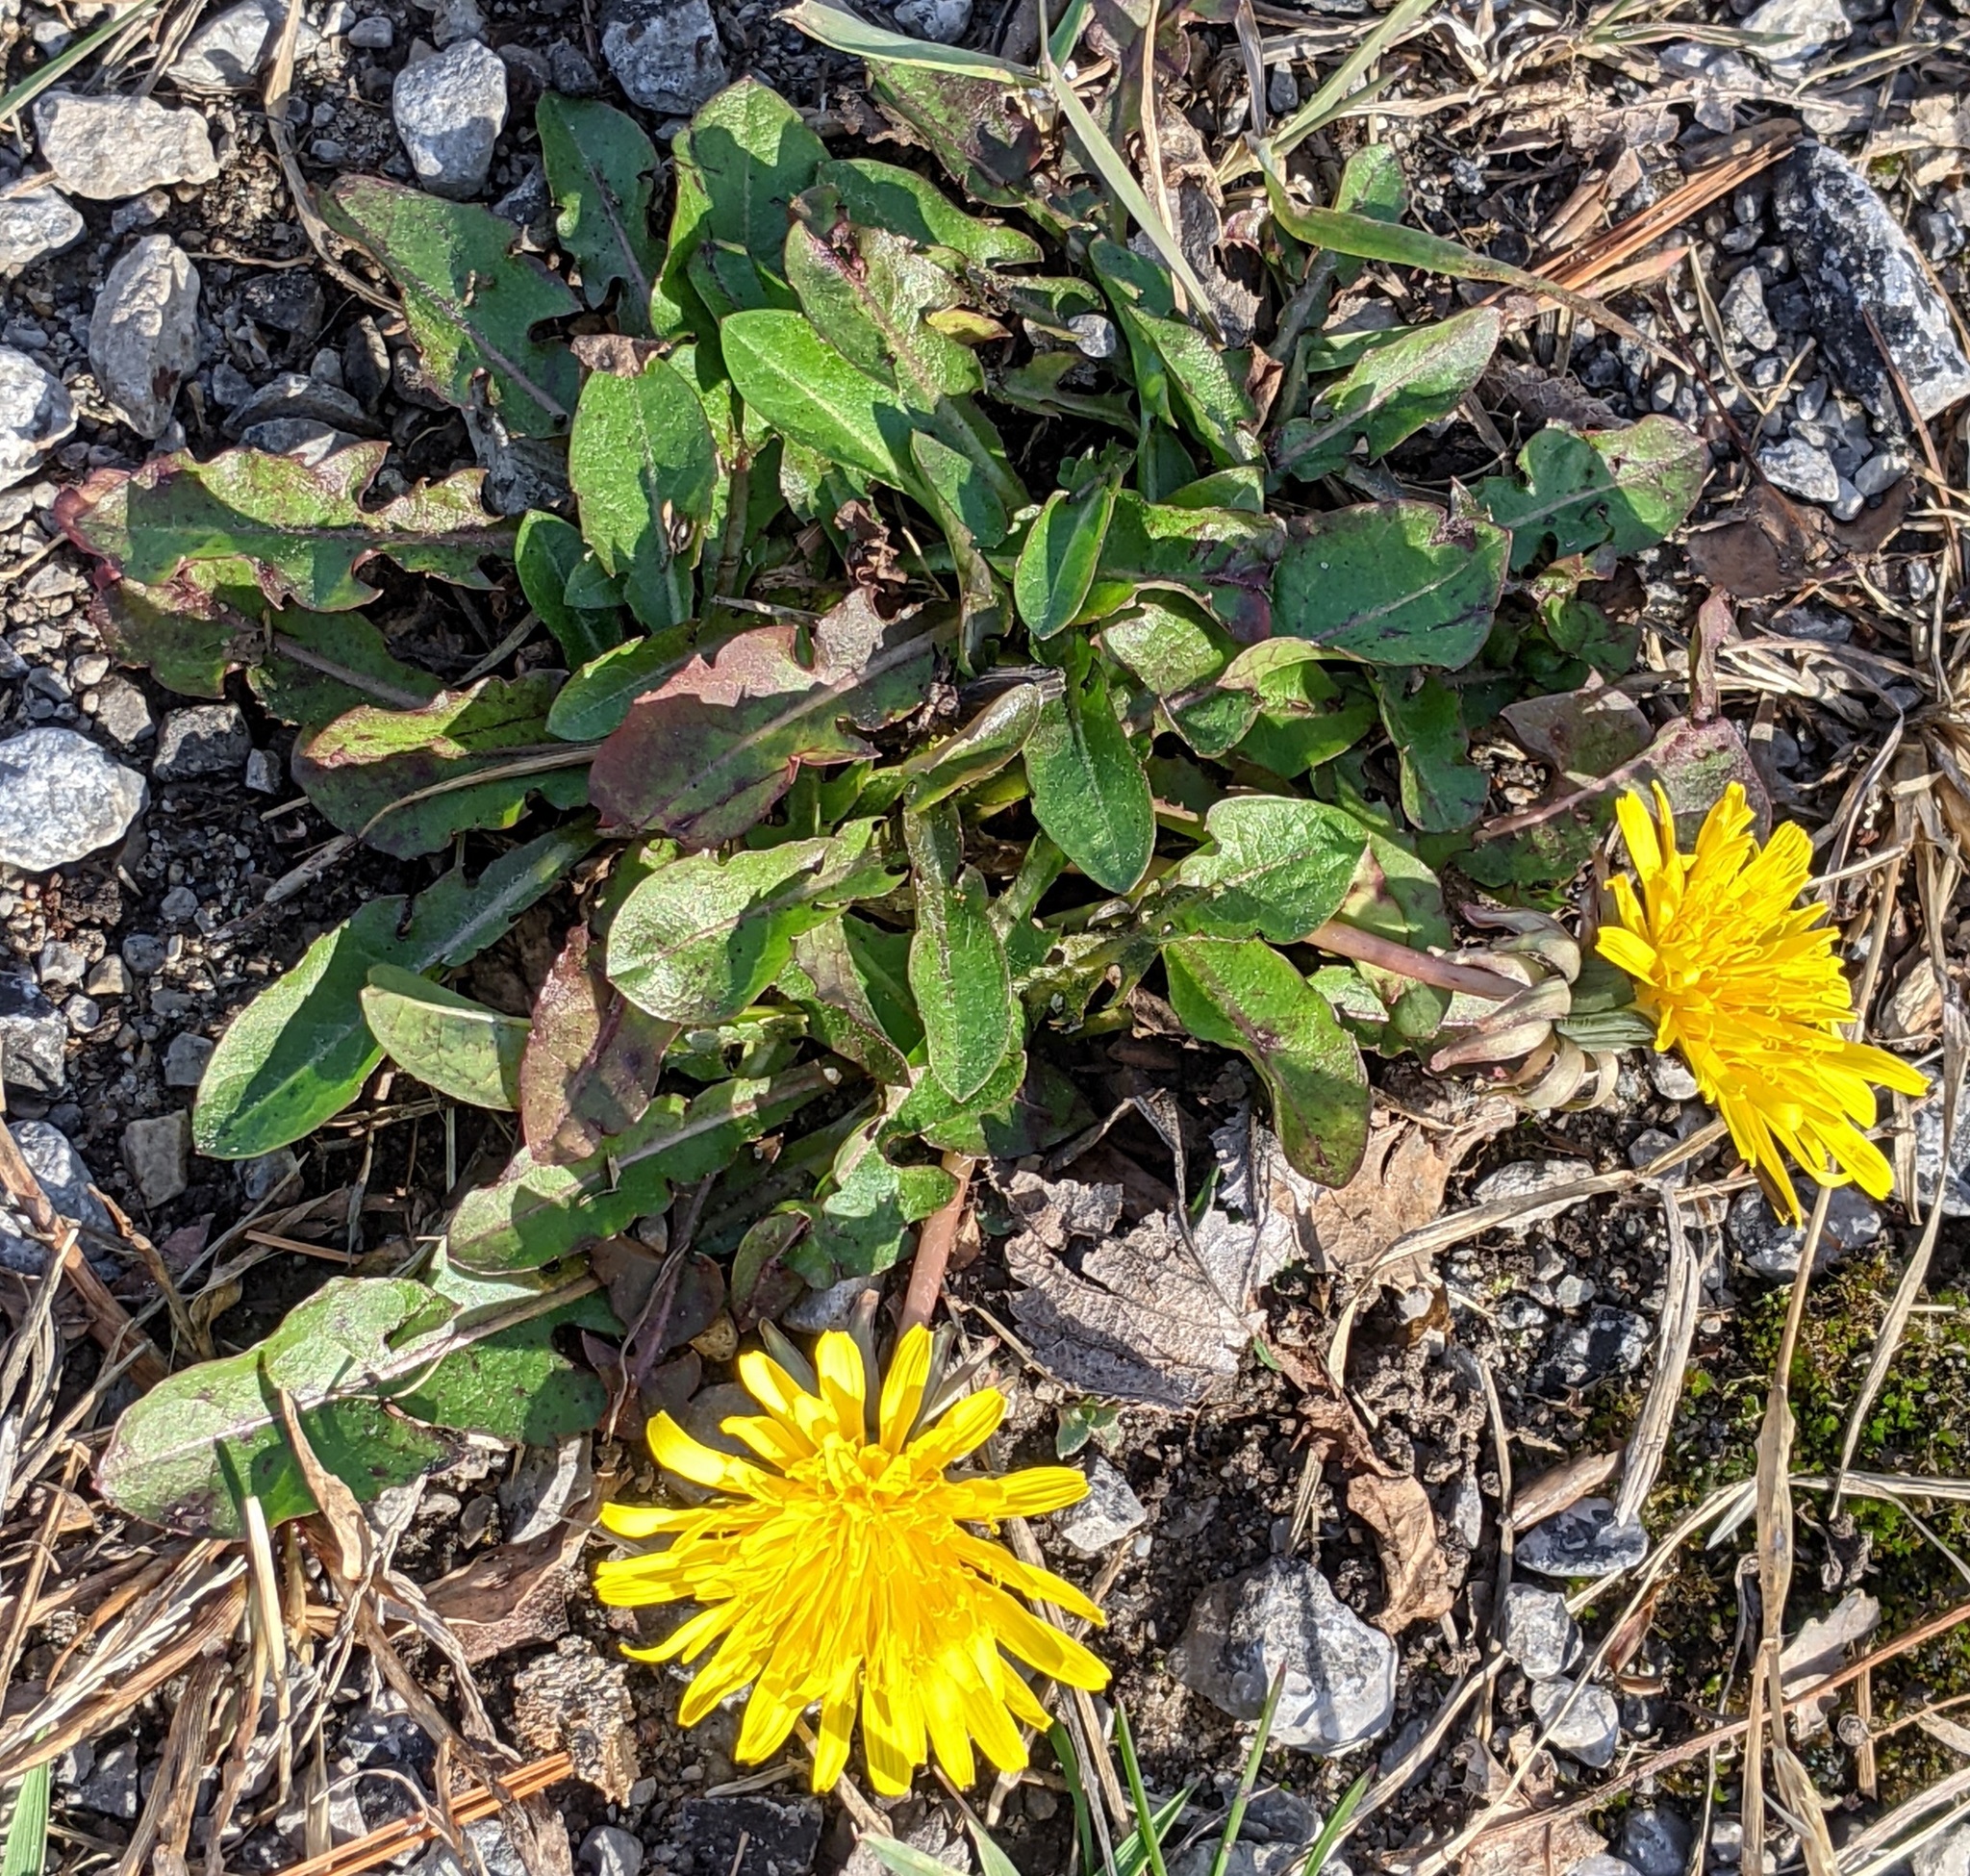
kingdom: Plantae
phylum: Tracheophyta
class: Magnoliopsida
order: Asterales
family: Asteraceae
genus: Taraxacum
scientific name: Taraxacum officinale
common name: Common dandelion
